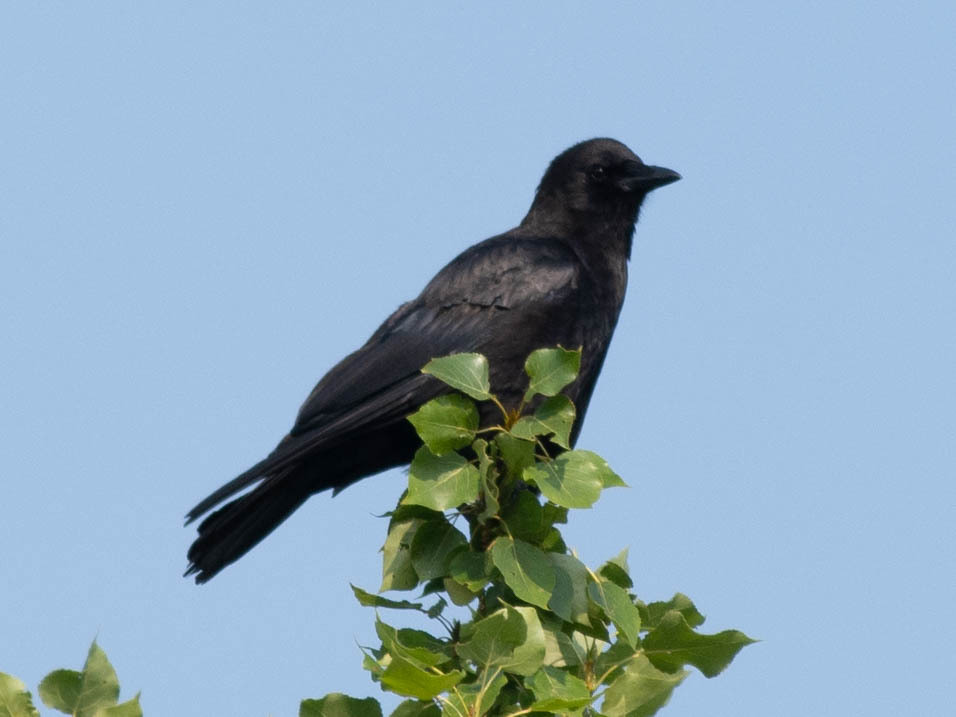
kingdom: Animalia
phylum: Chordata
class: Aves
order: Passeriformes
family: Corvidae
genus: Corvus
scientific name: Corvus brachyrhynchos
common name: American crow
